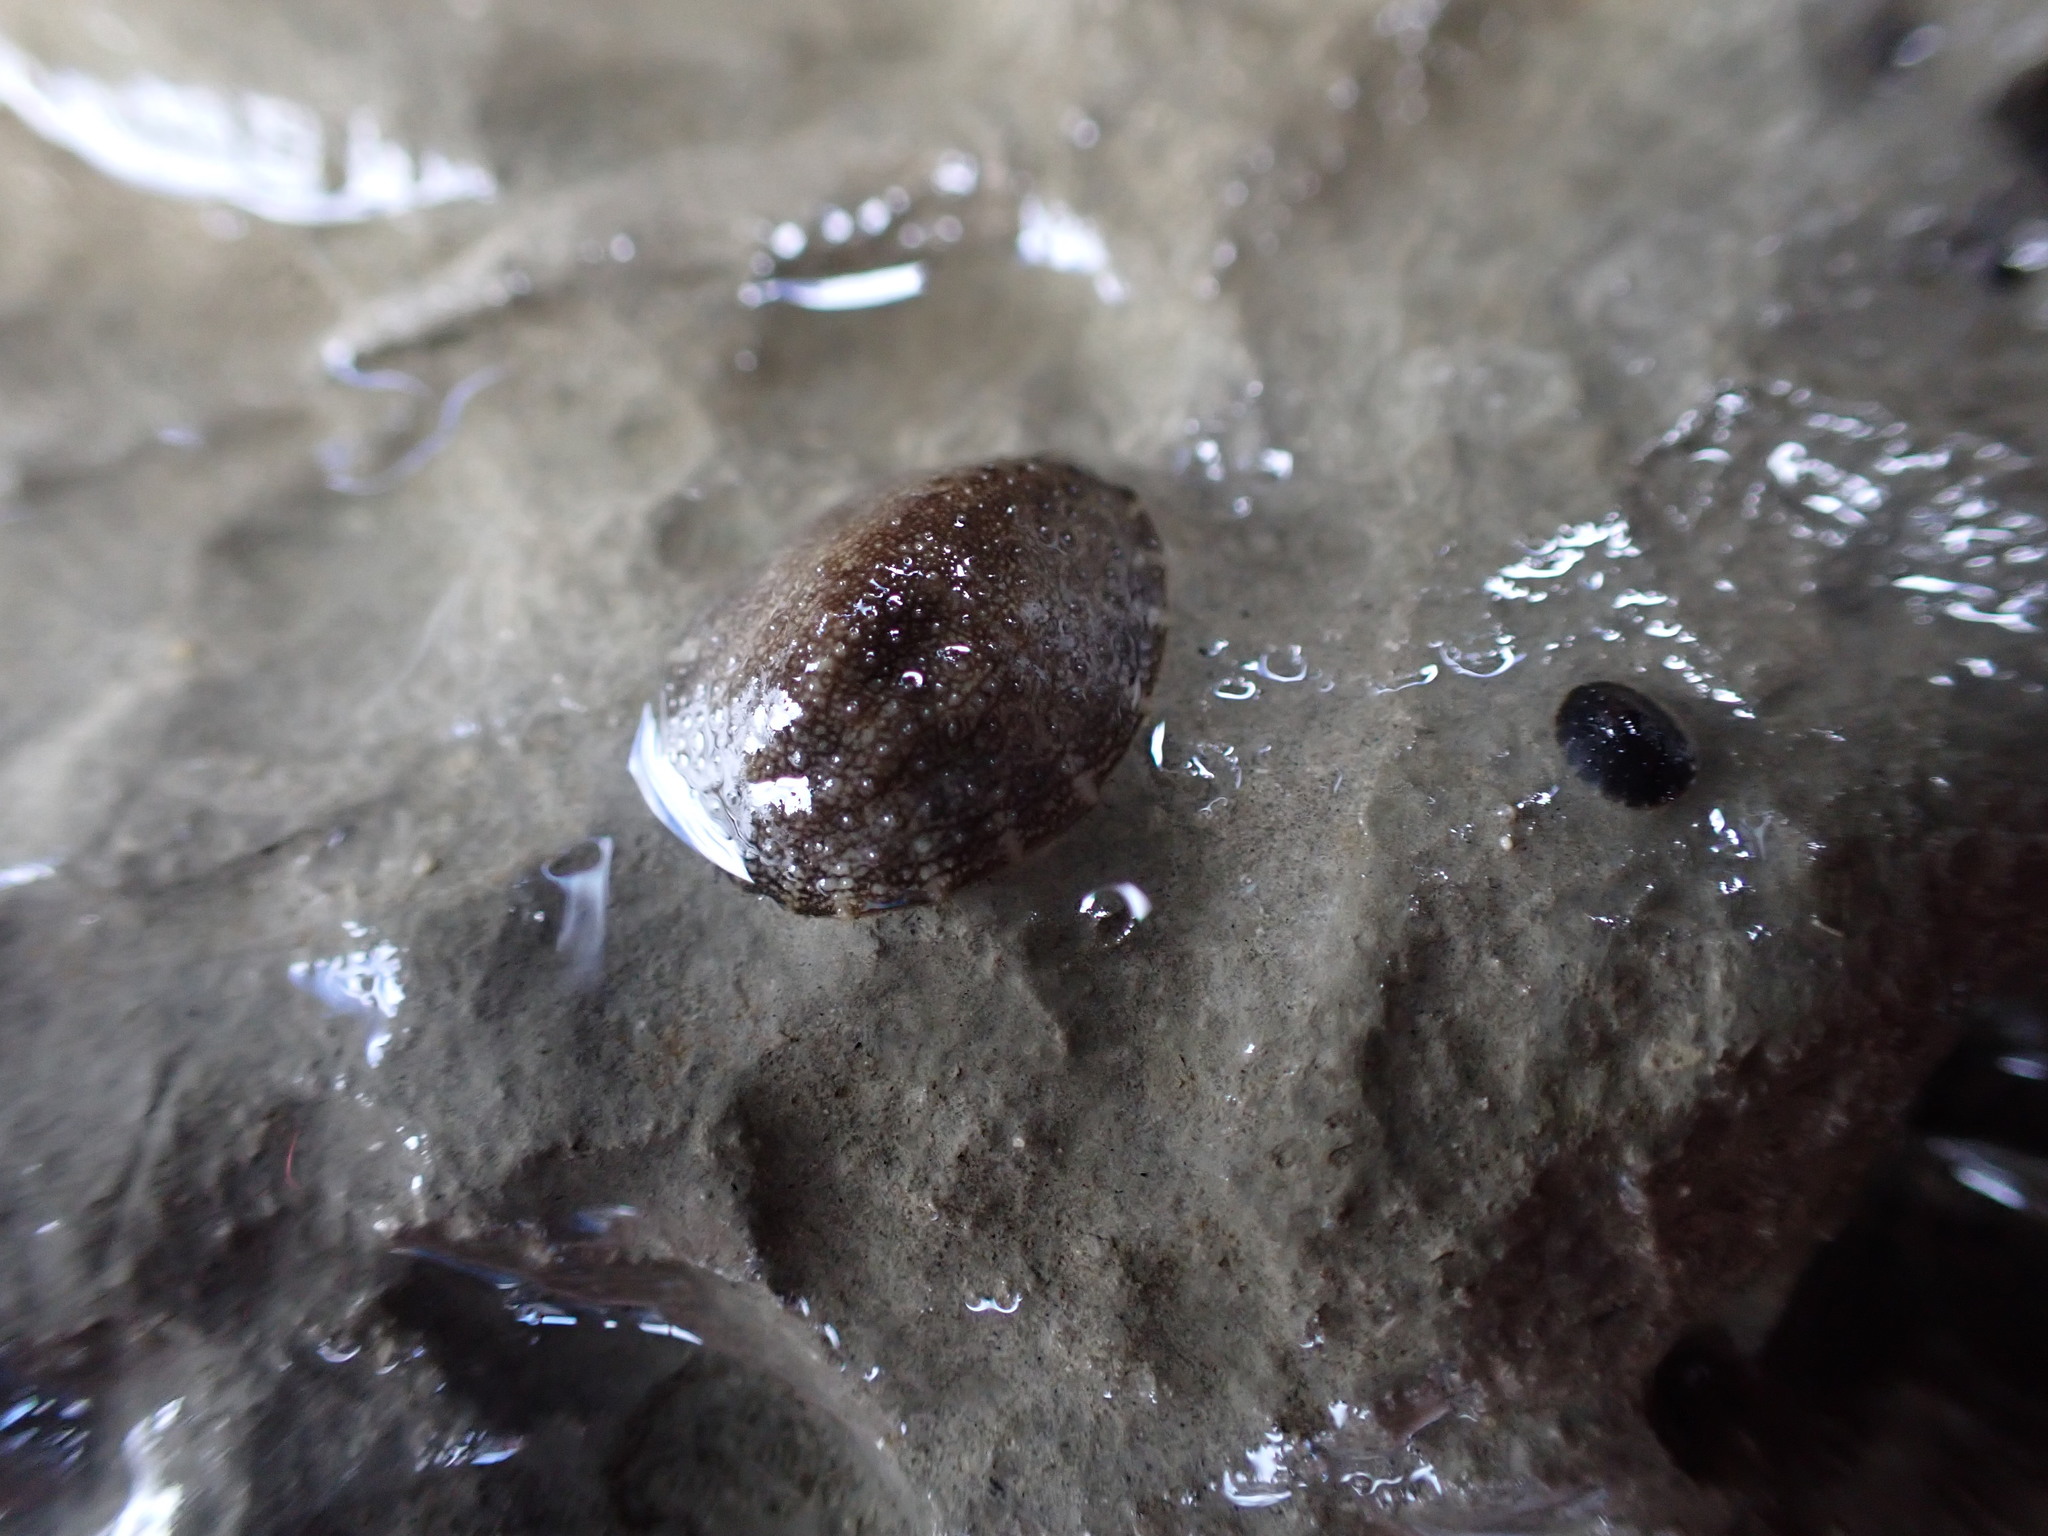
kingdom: Animalia
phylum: Mollusca
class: Gastropoda
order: Systellommatophora
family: Onchidiidae
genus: Onchidella
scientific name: Onchidella nigricans
